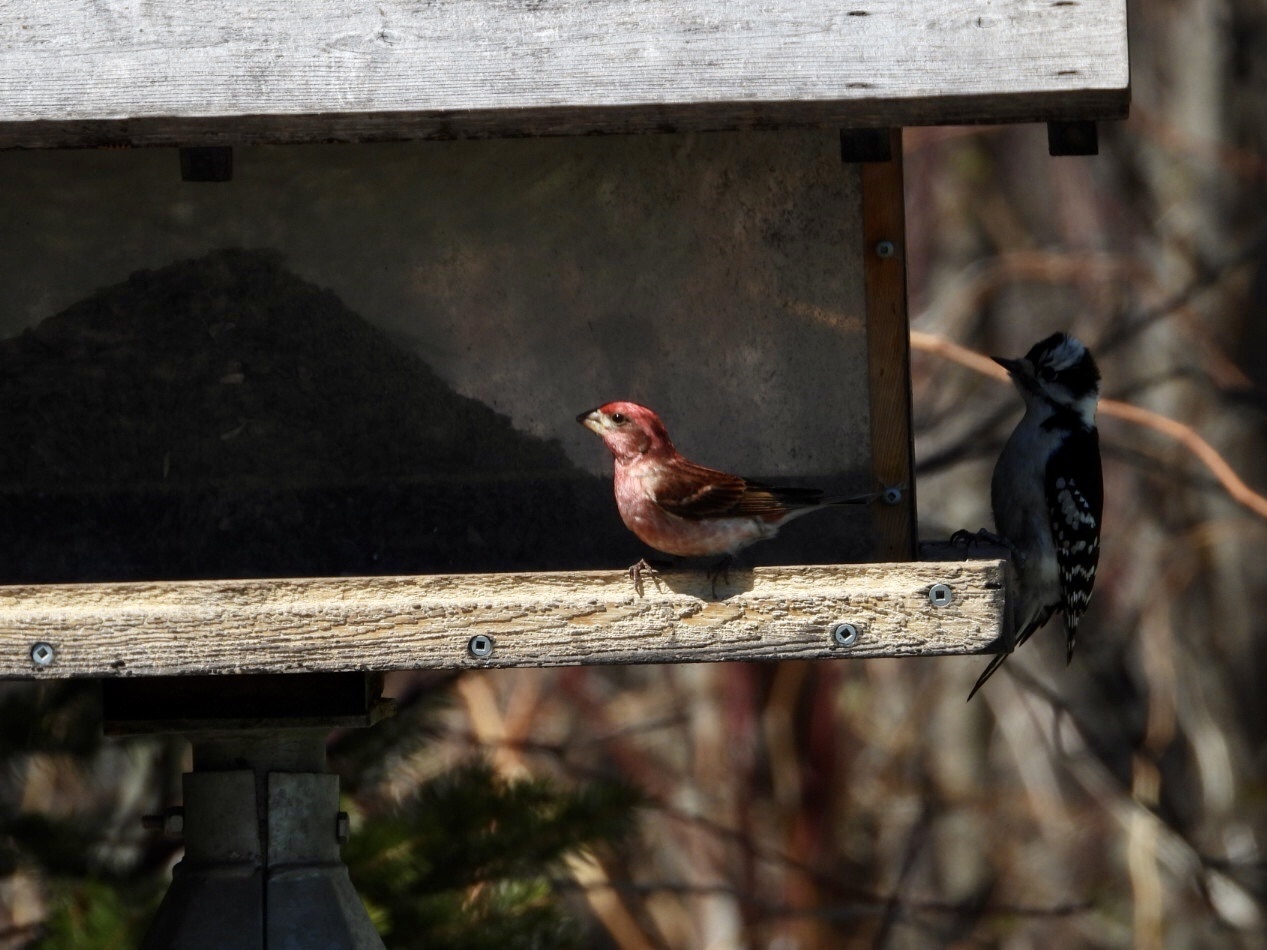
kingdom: Animalia
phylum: Chordata
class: Aves
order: Piciformes
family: Picidae
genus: Dryobates
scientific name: Dryobates pubescens
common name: Downy woodpecker
